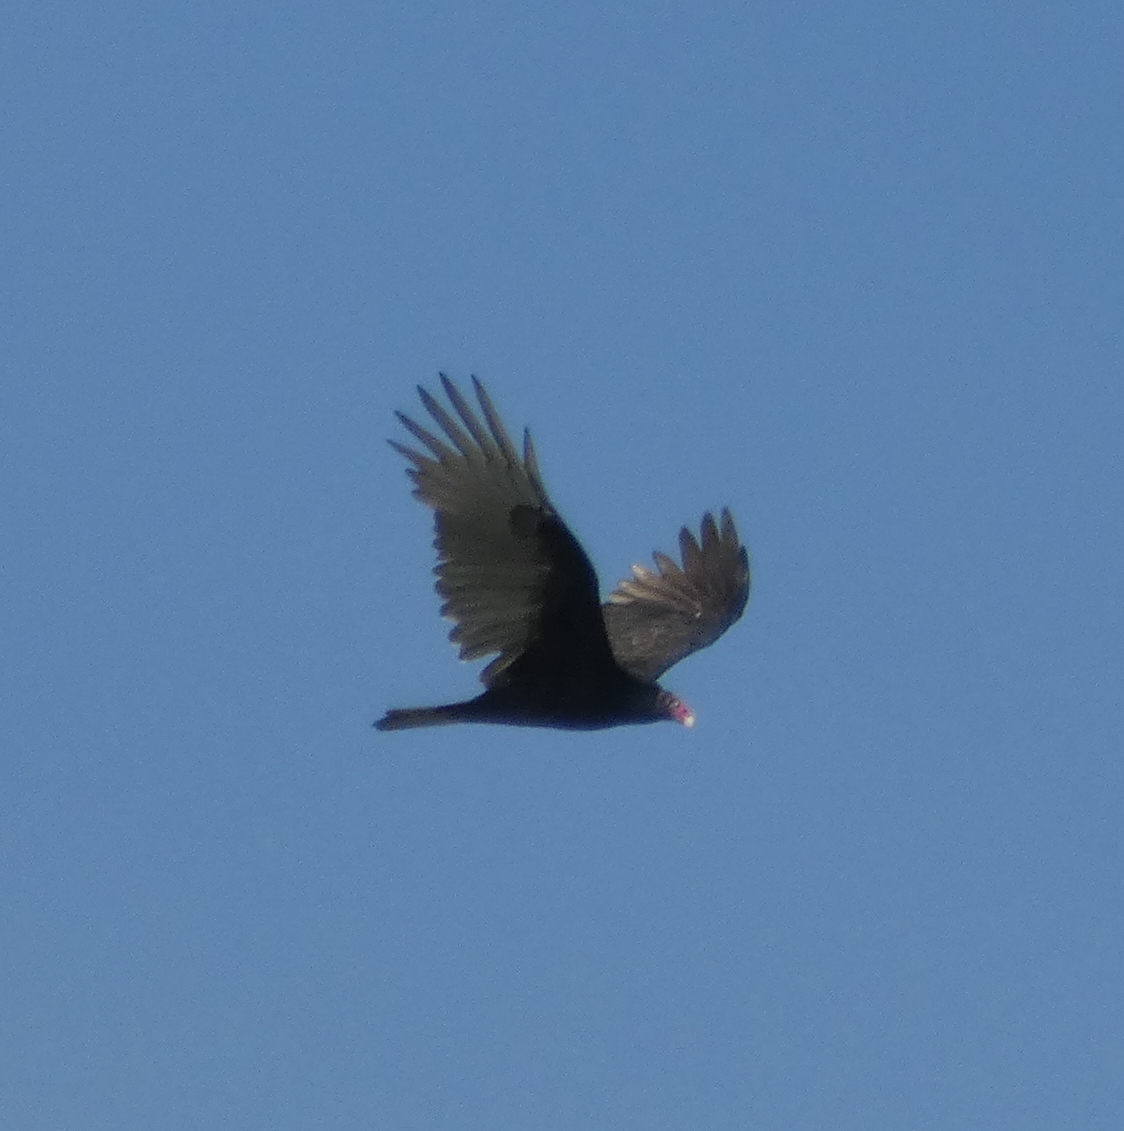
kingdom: Animalia
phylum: Chordata
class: Aves
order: Accipitriformes
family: Cathartidae
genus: Cathartes
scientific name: Cathartes aura
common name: Turkey vulture
